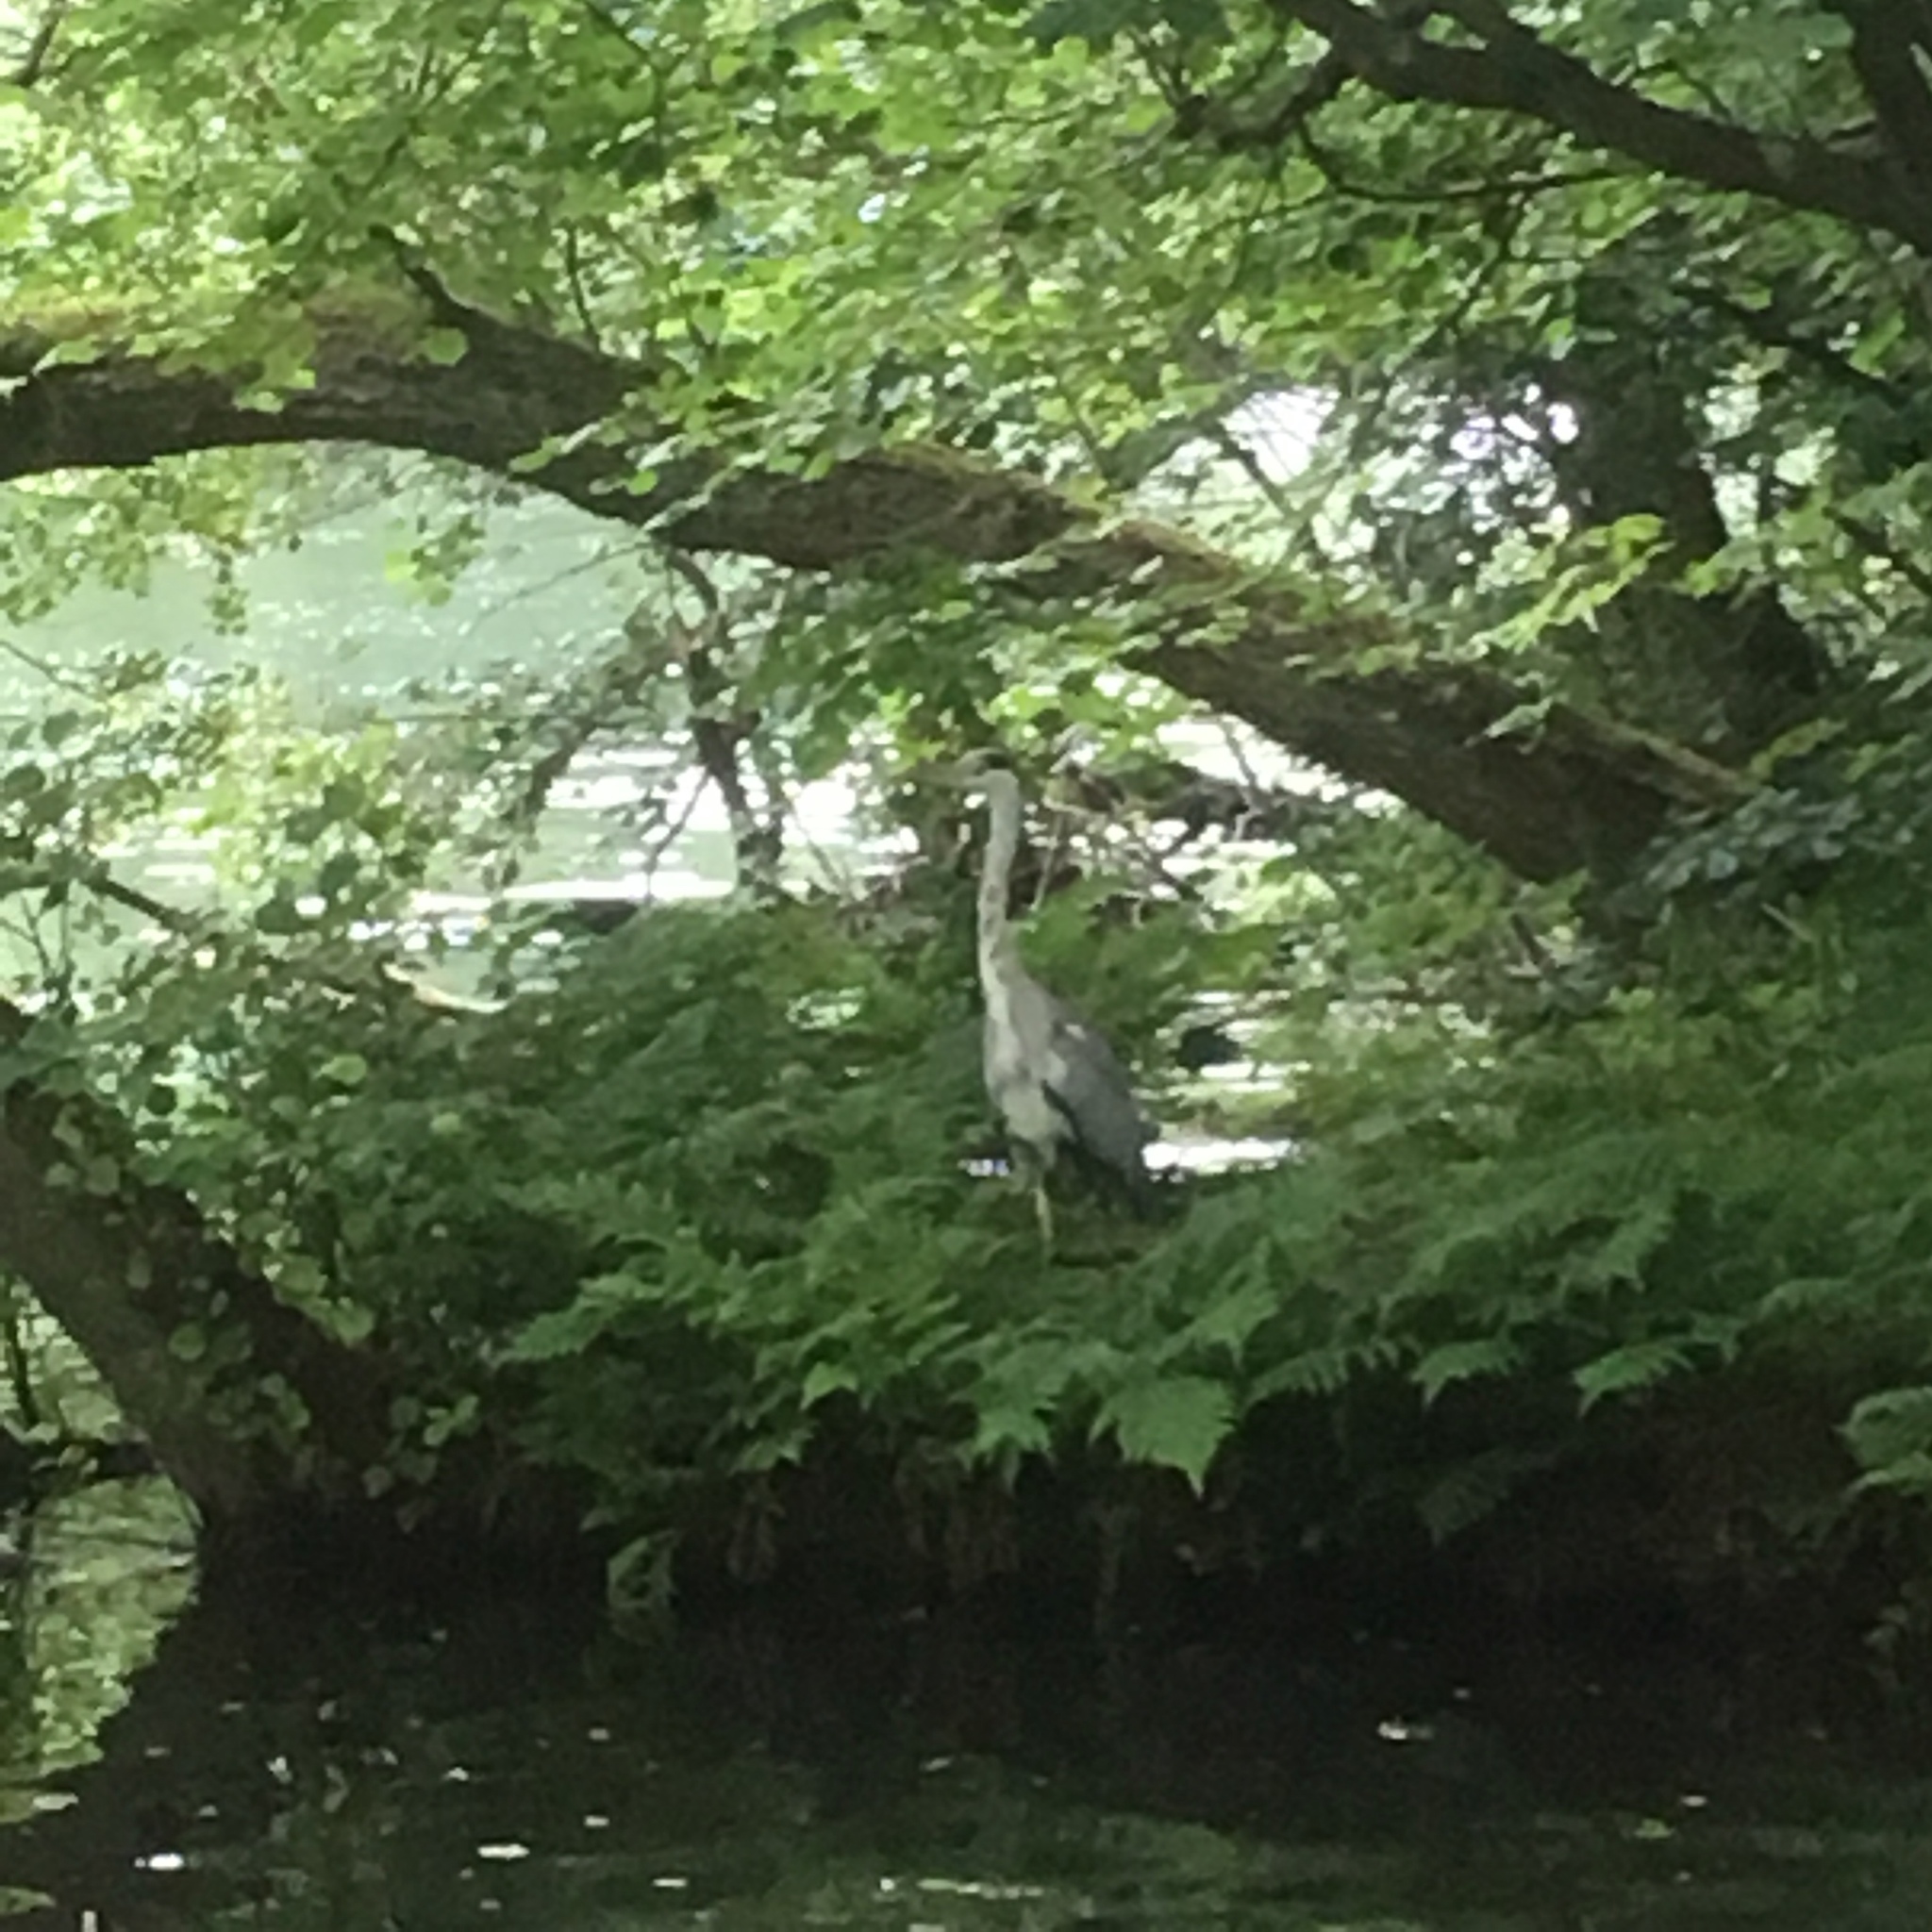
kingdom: Animalia
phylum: Chordata
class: Aves
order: Pelecaniformes
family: Ardeidae
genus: Ardea
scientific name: Ardea cinerea
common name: Grey heron
